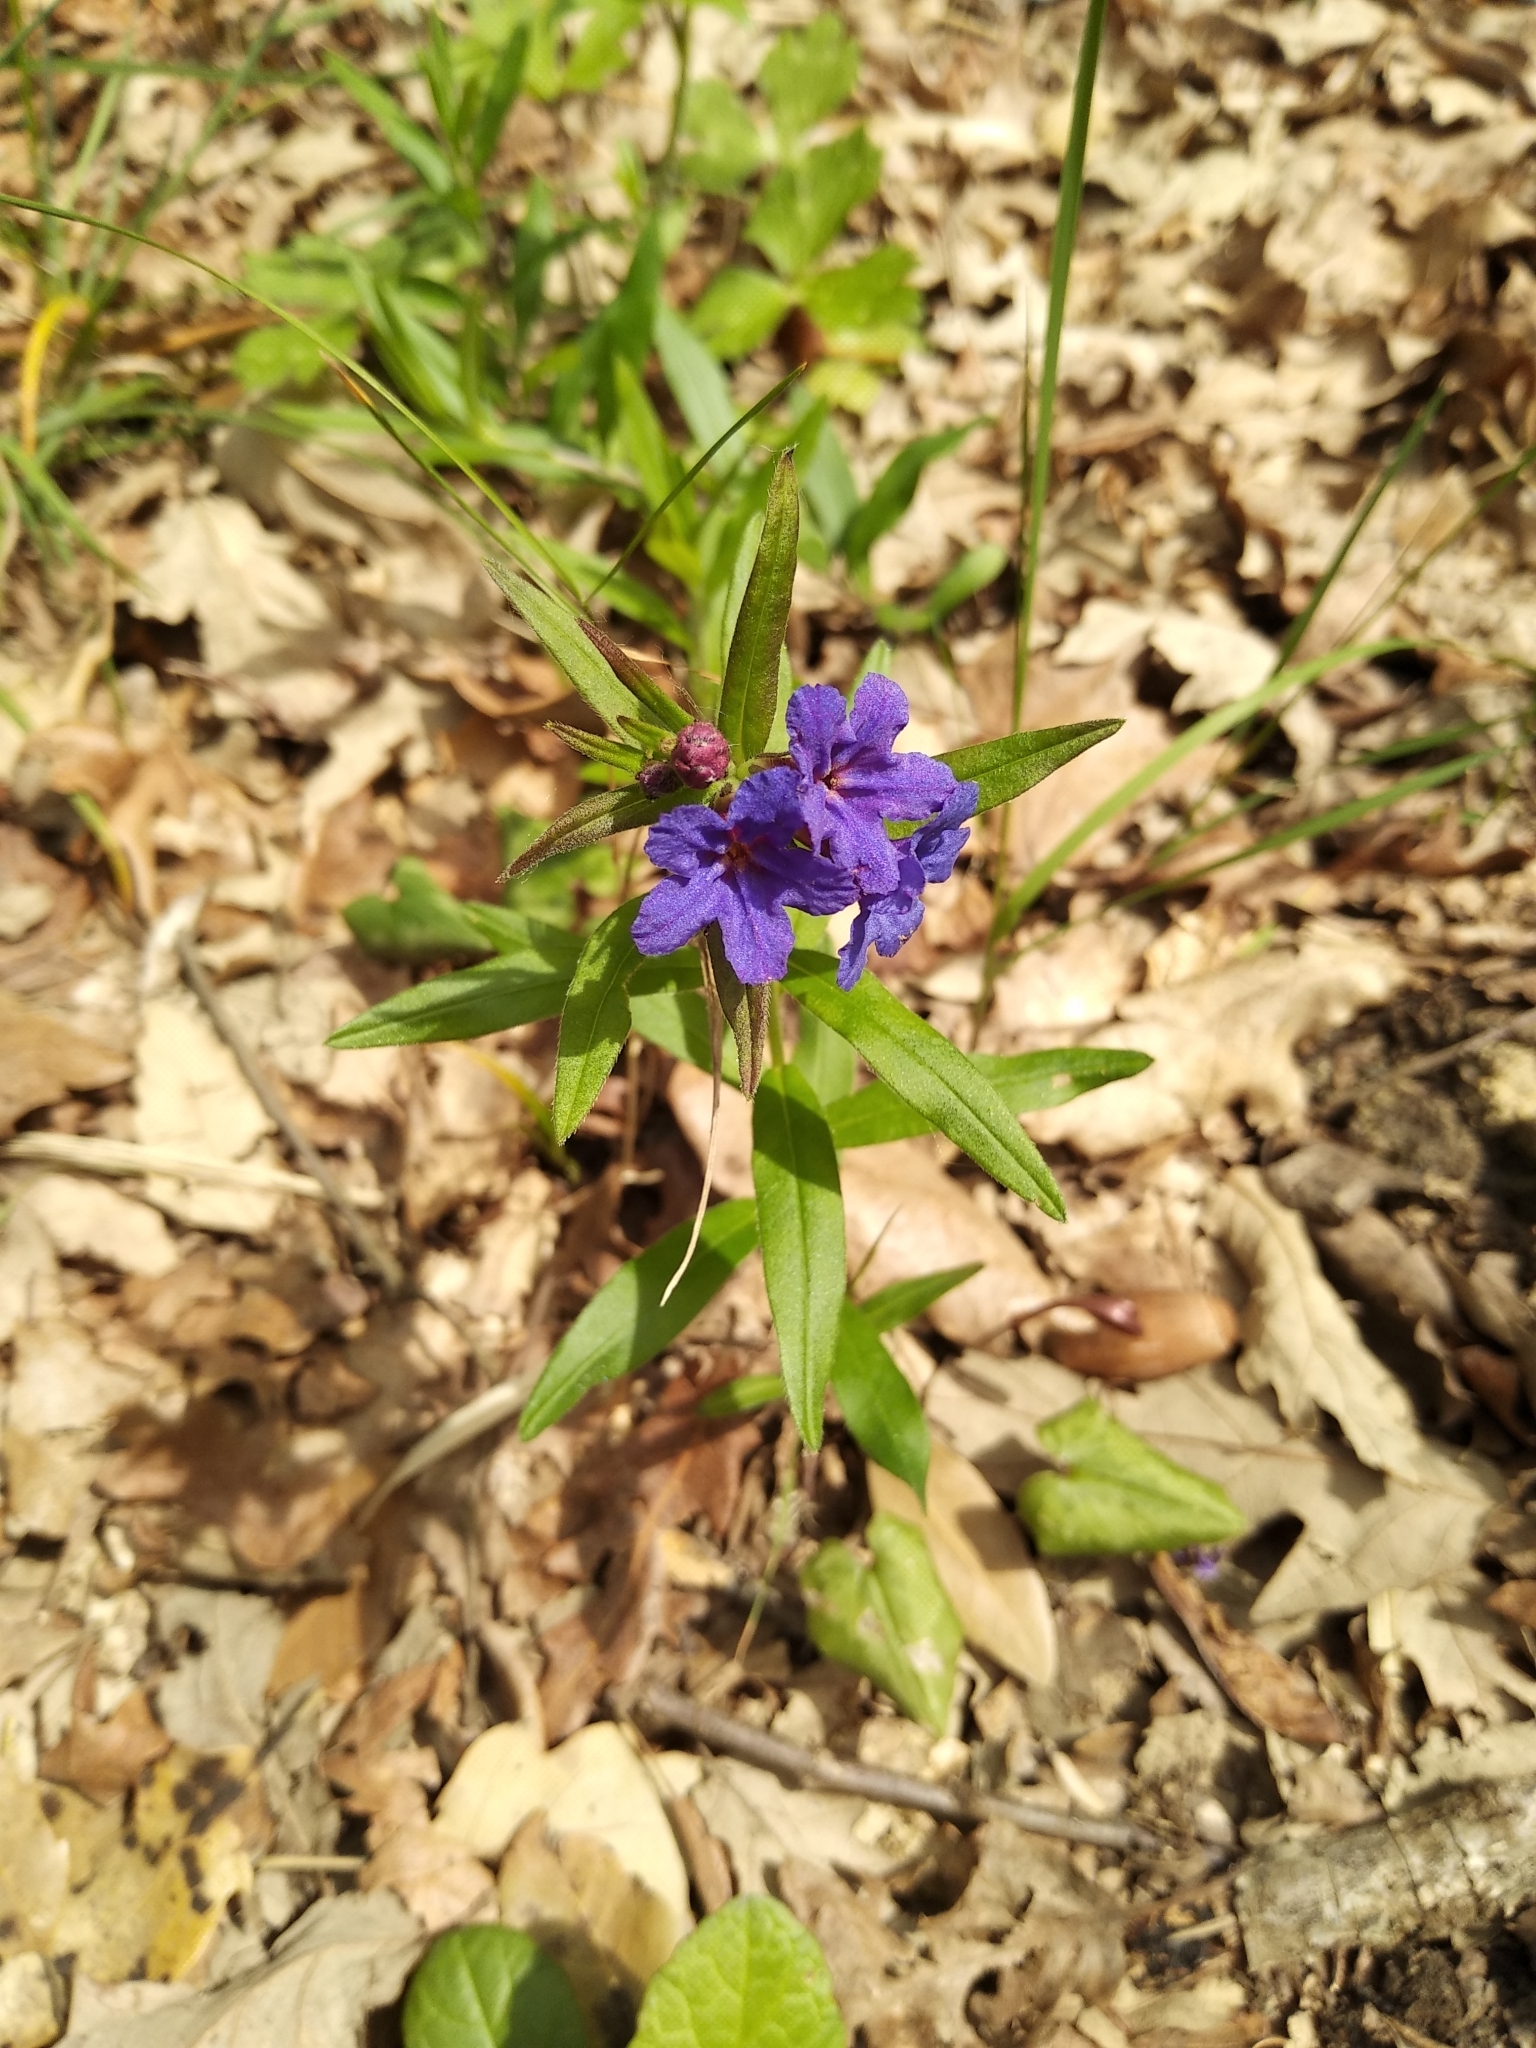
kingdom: Plantae
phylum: Tracheophyta
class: Magnoliopsida
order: Boraginales
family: Boraginaceae
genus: Aegonychon
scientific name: Aegonychon purpurocaeruleum
